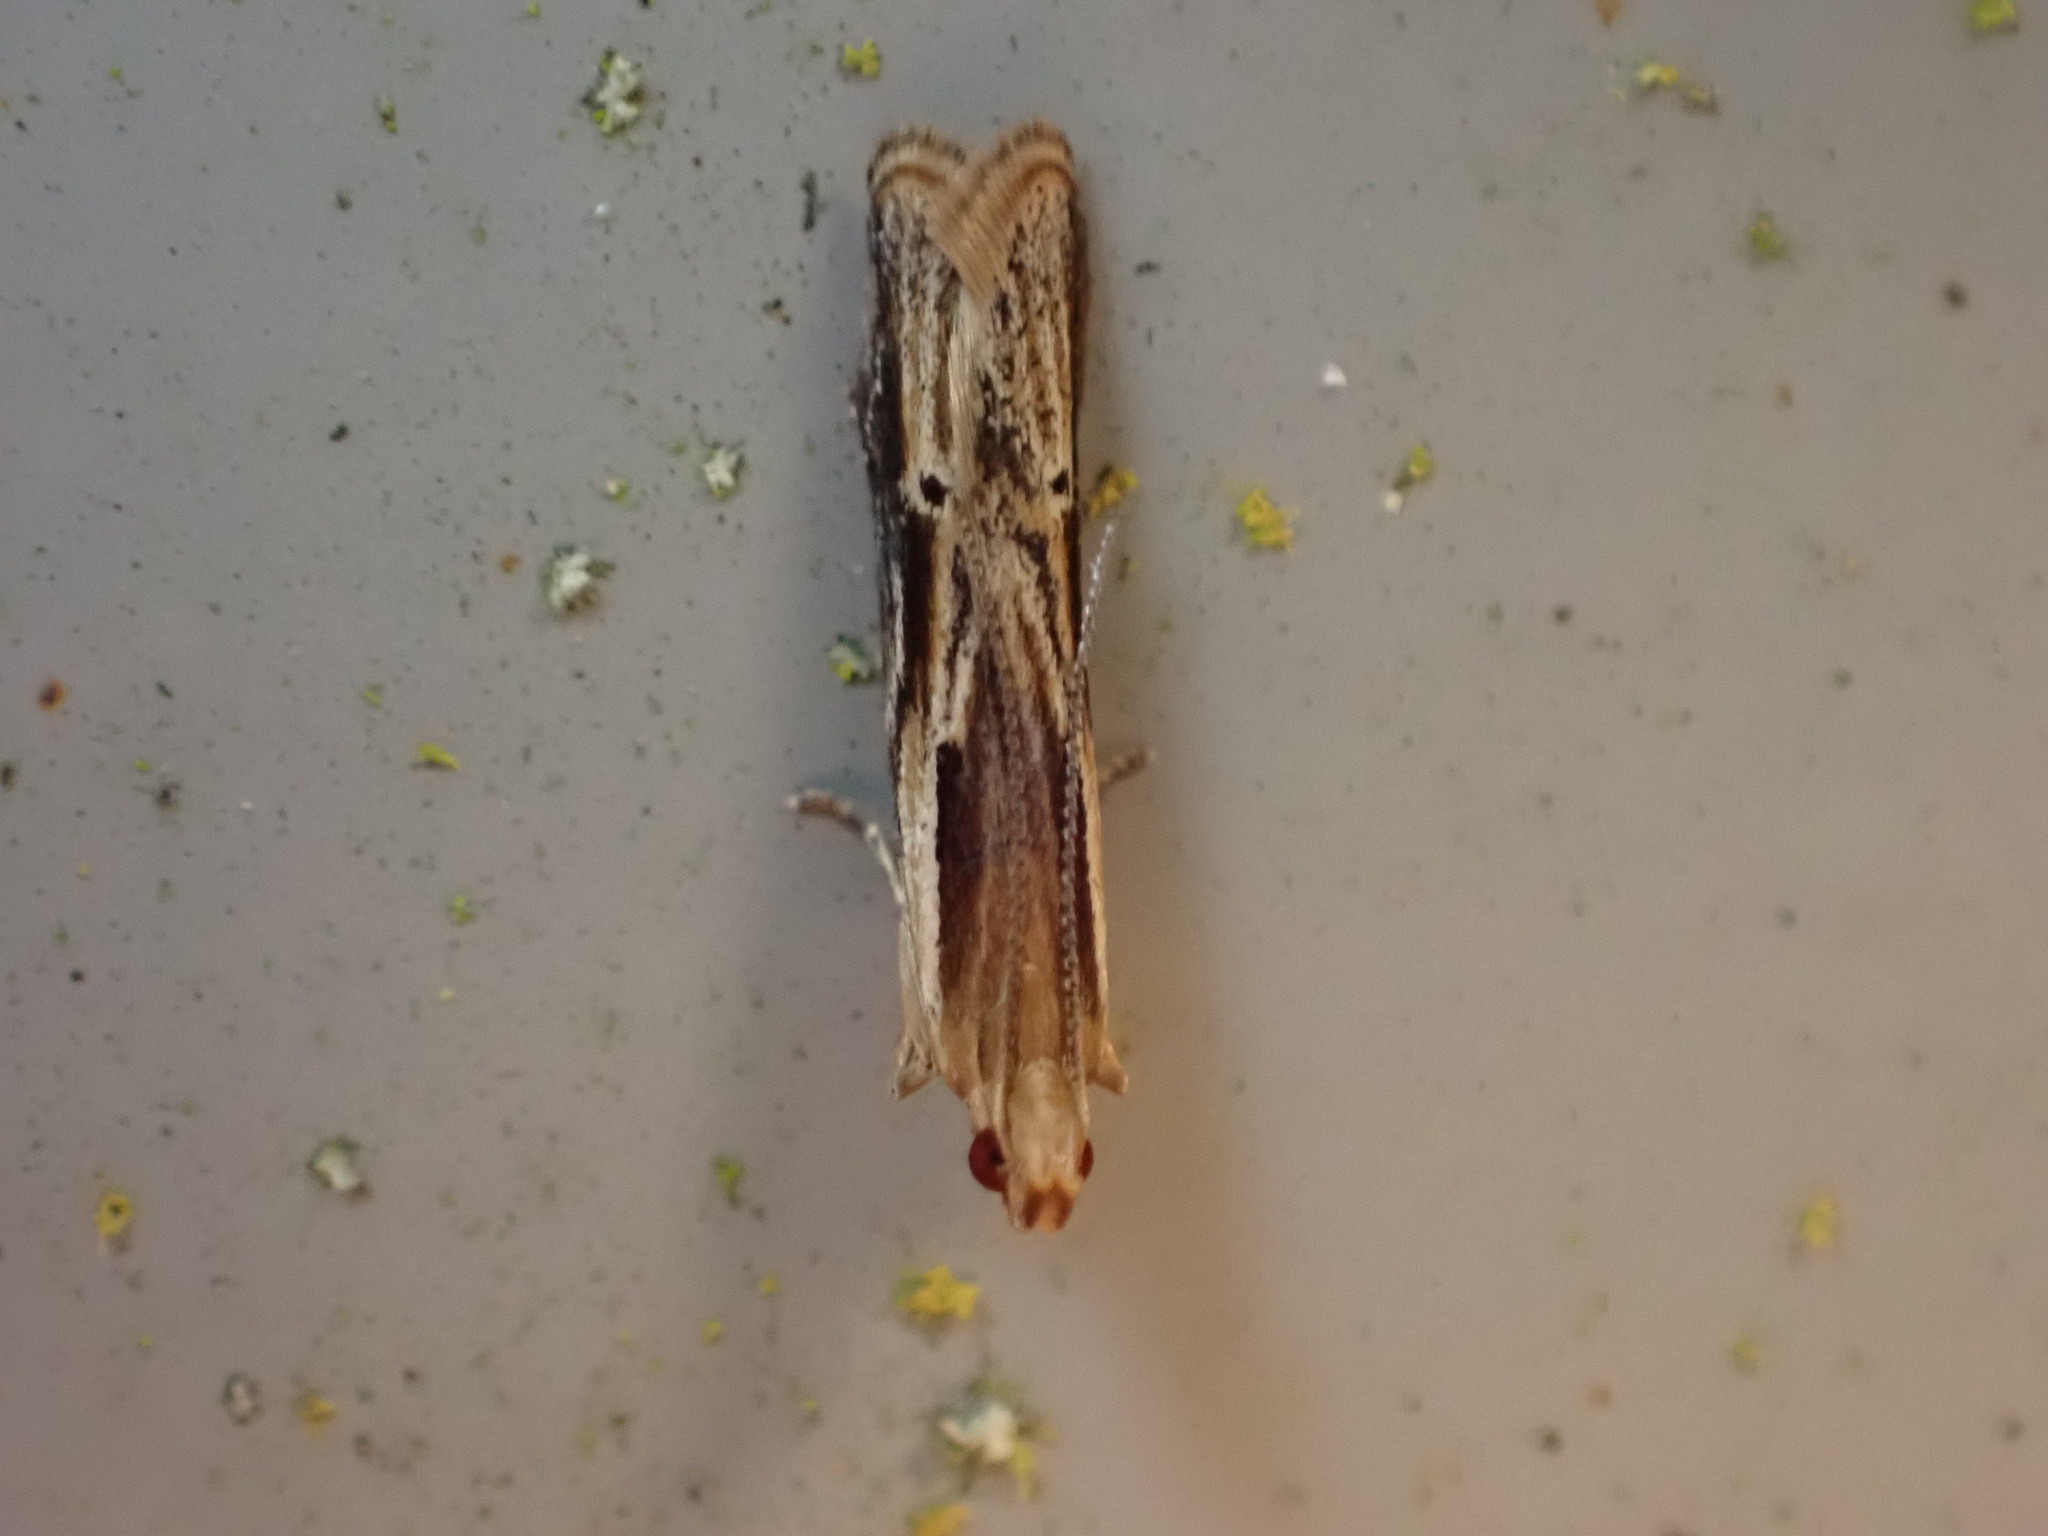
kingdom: Animalia
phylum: Arthropoda
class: Insecta
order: Lepidoptera
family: Depressariidae
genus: Eutorna
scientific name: Eutorna symmorpha
